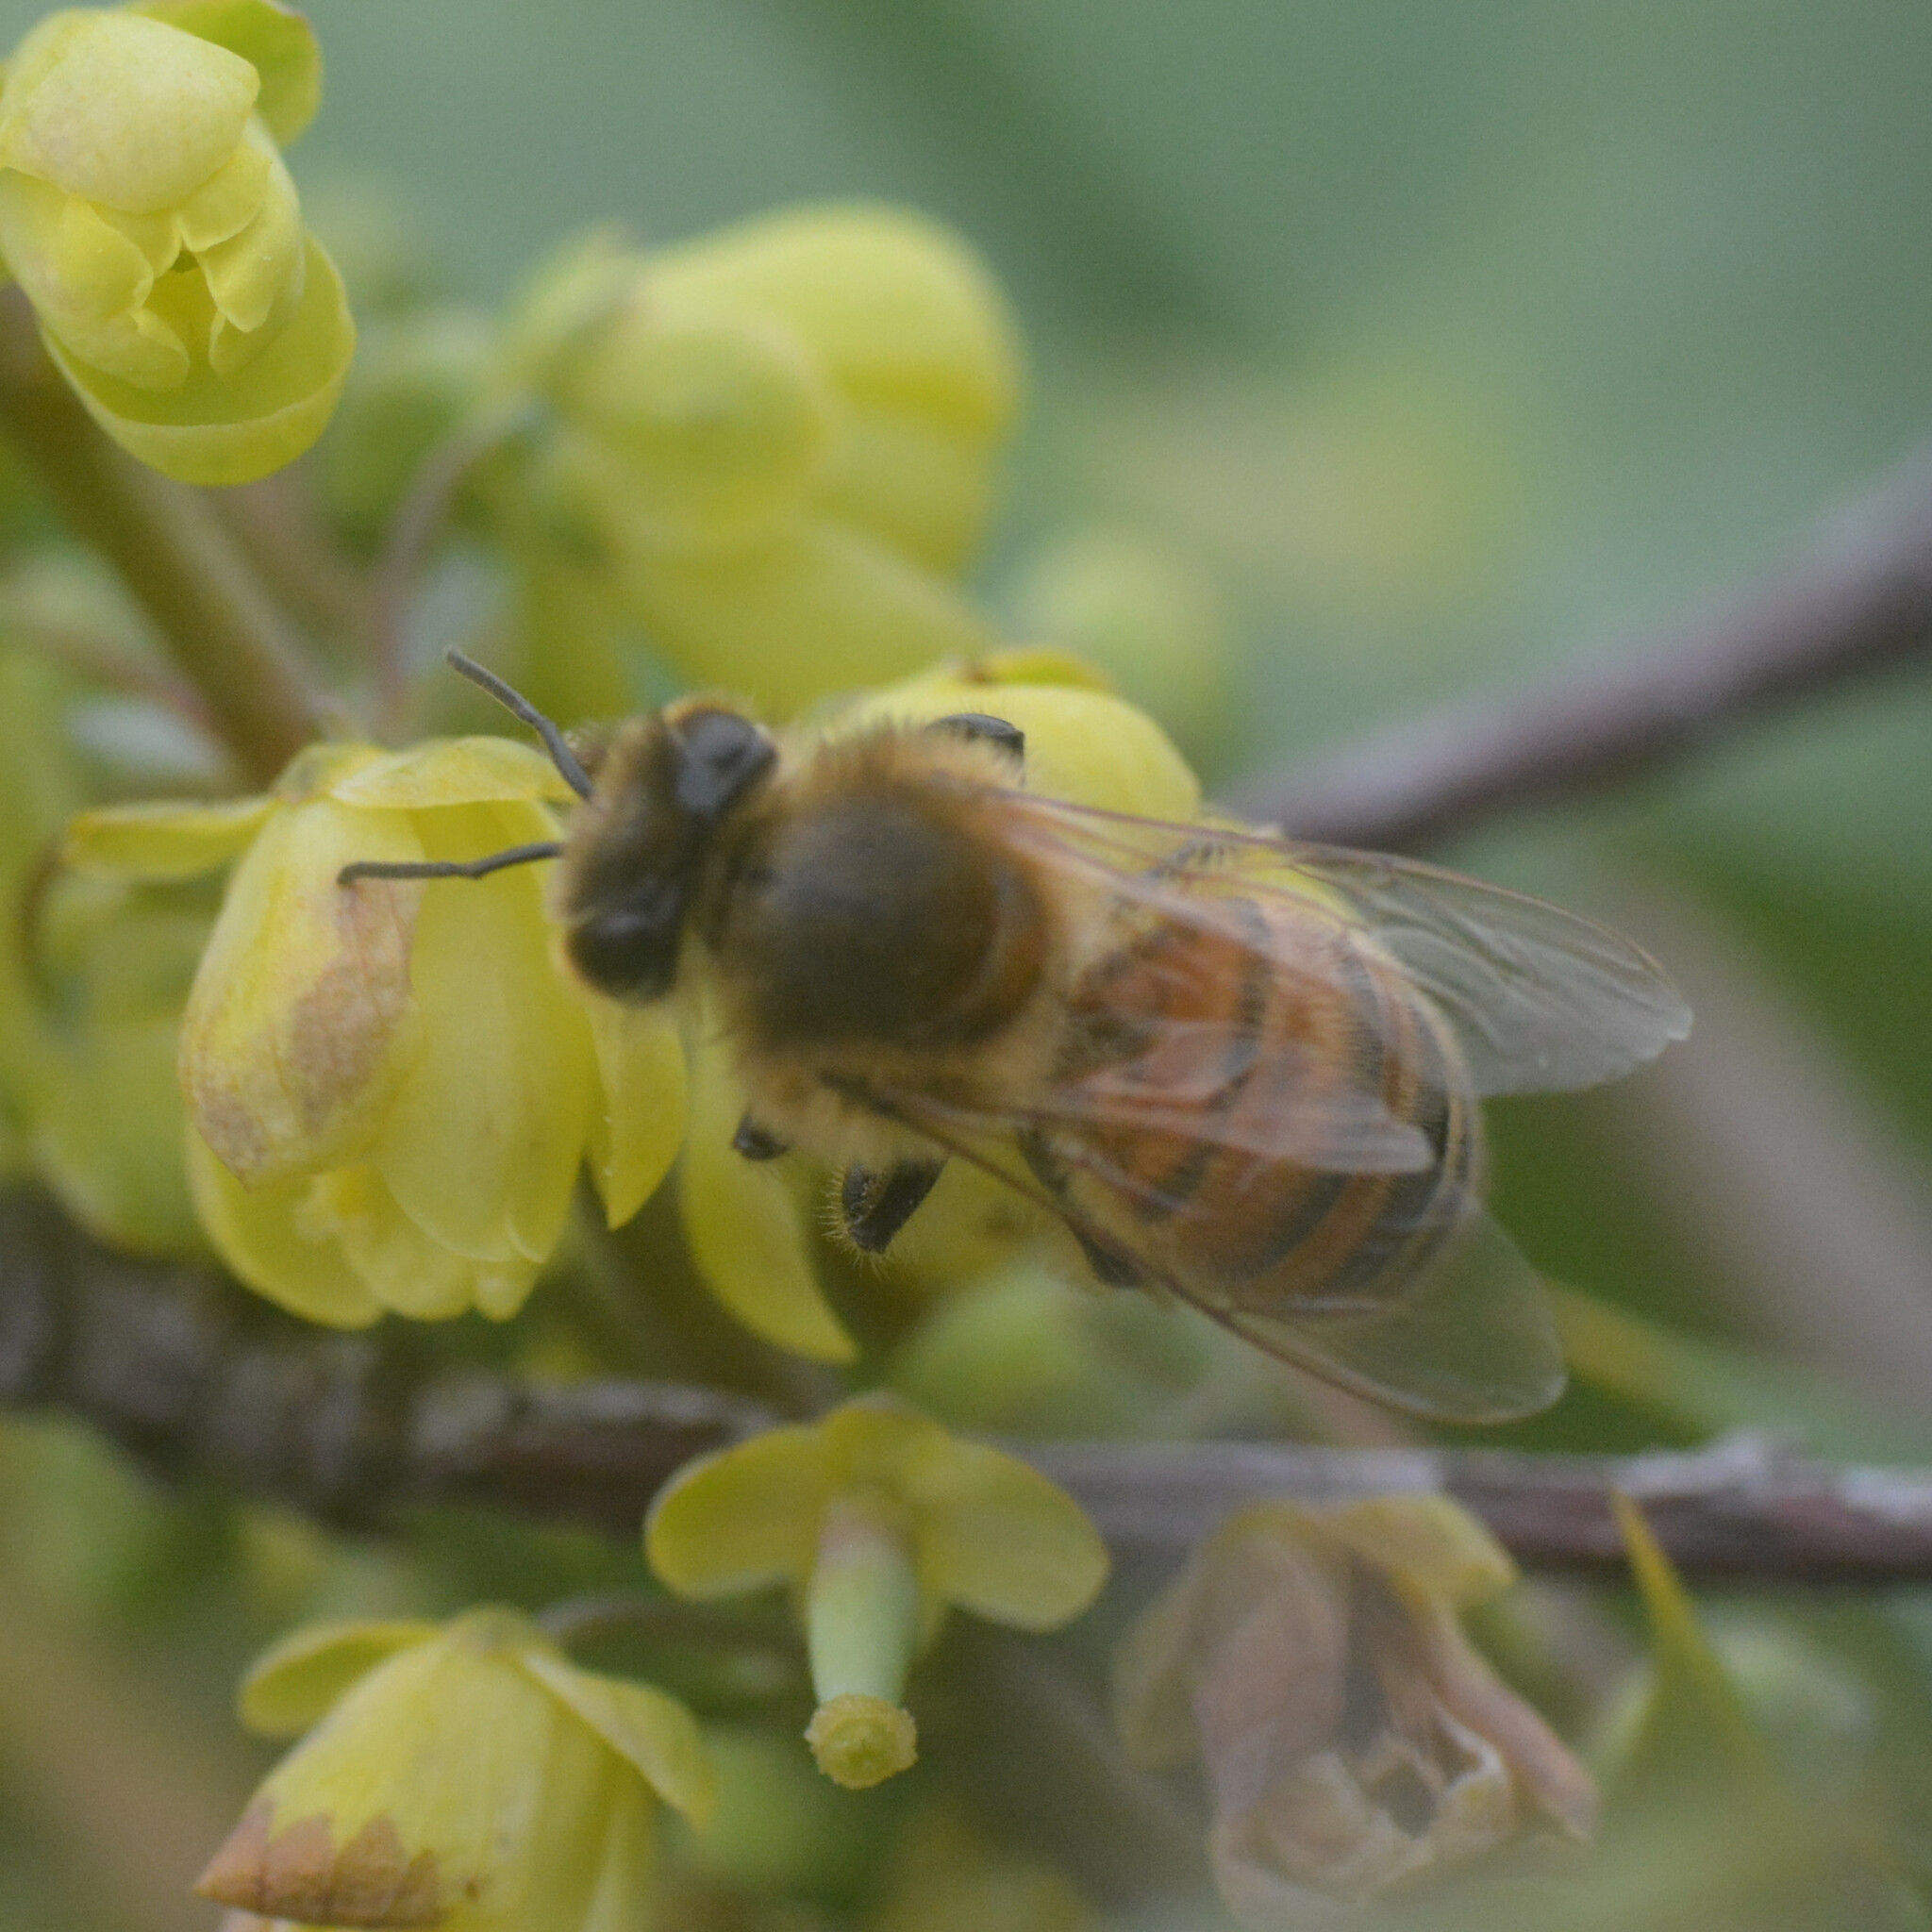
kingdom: Animalia
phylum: Arthropoda
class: Insecta
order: Hymenoptera
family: Apidae
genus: Apis
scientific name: Apis mellifera
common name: Honey bee
